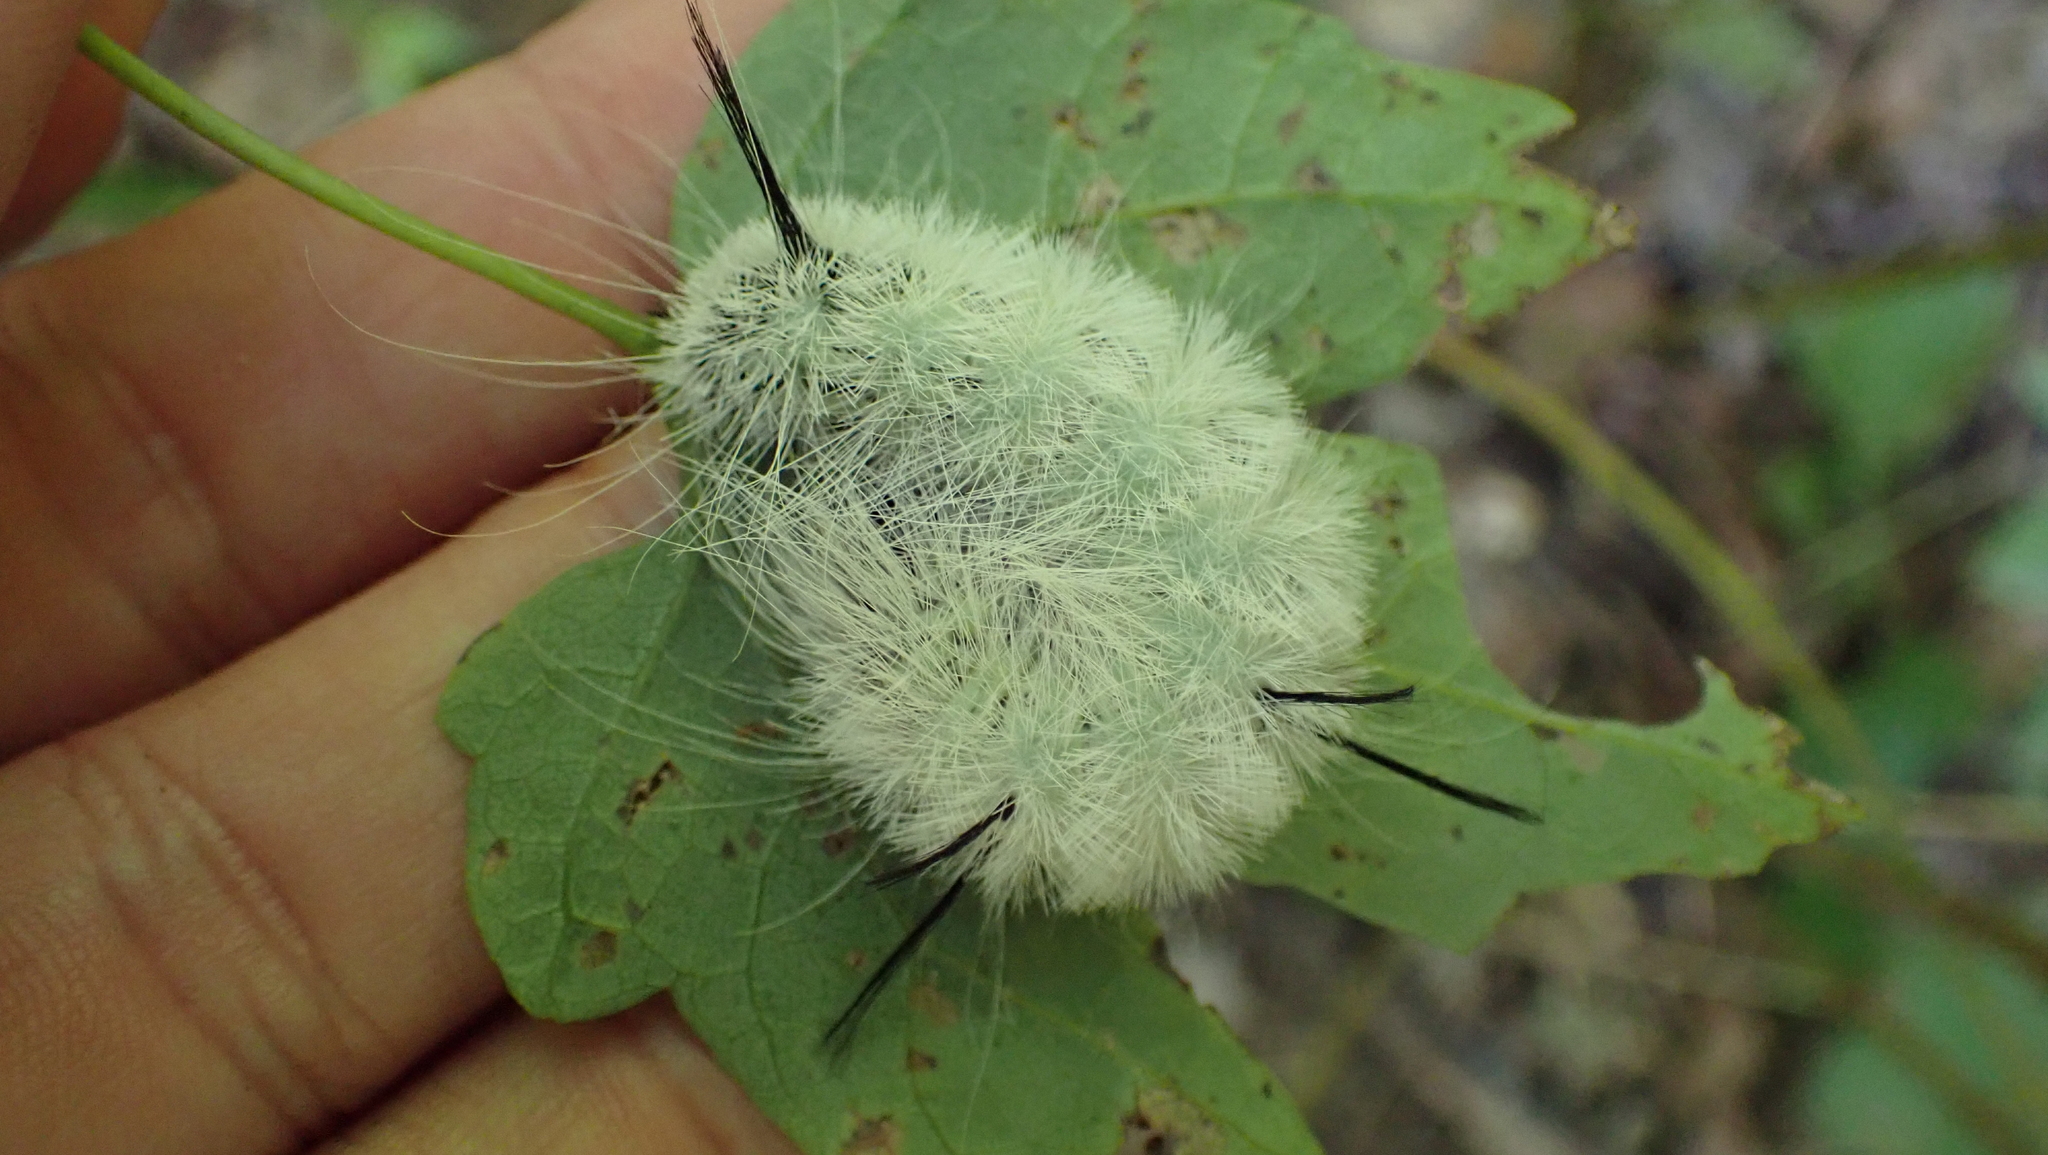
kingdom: Animalia
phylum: Arthropoda
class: Insecta
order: Lepidoptera
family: Noctuidae
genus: Acronicta
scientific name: Acronicta americana
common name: American dagger
